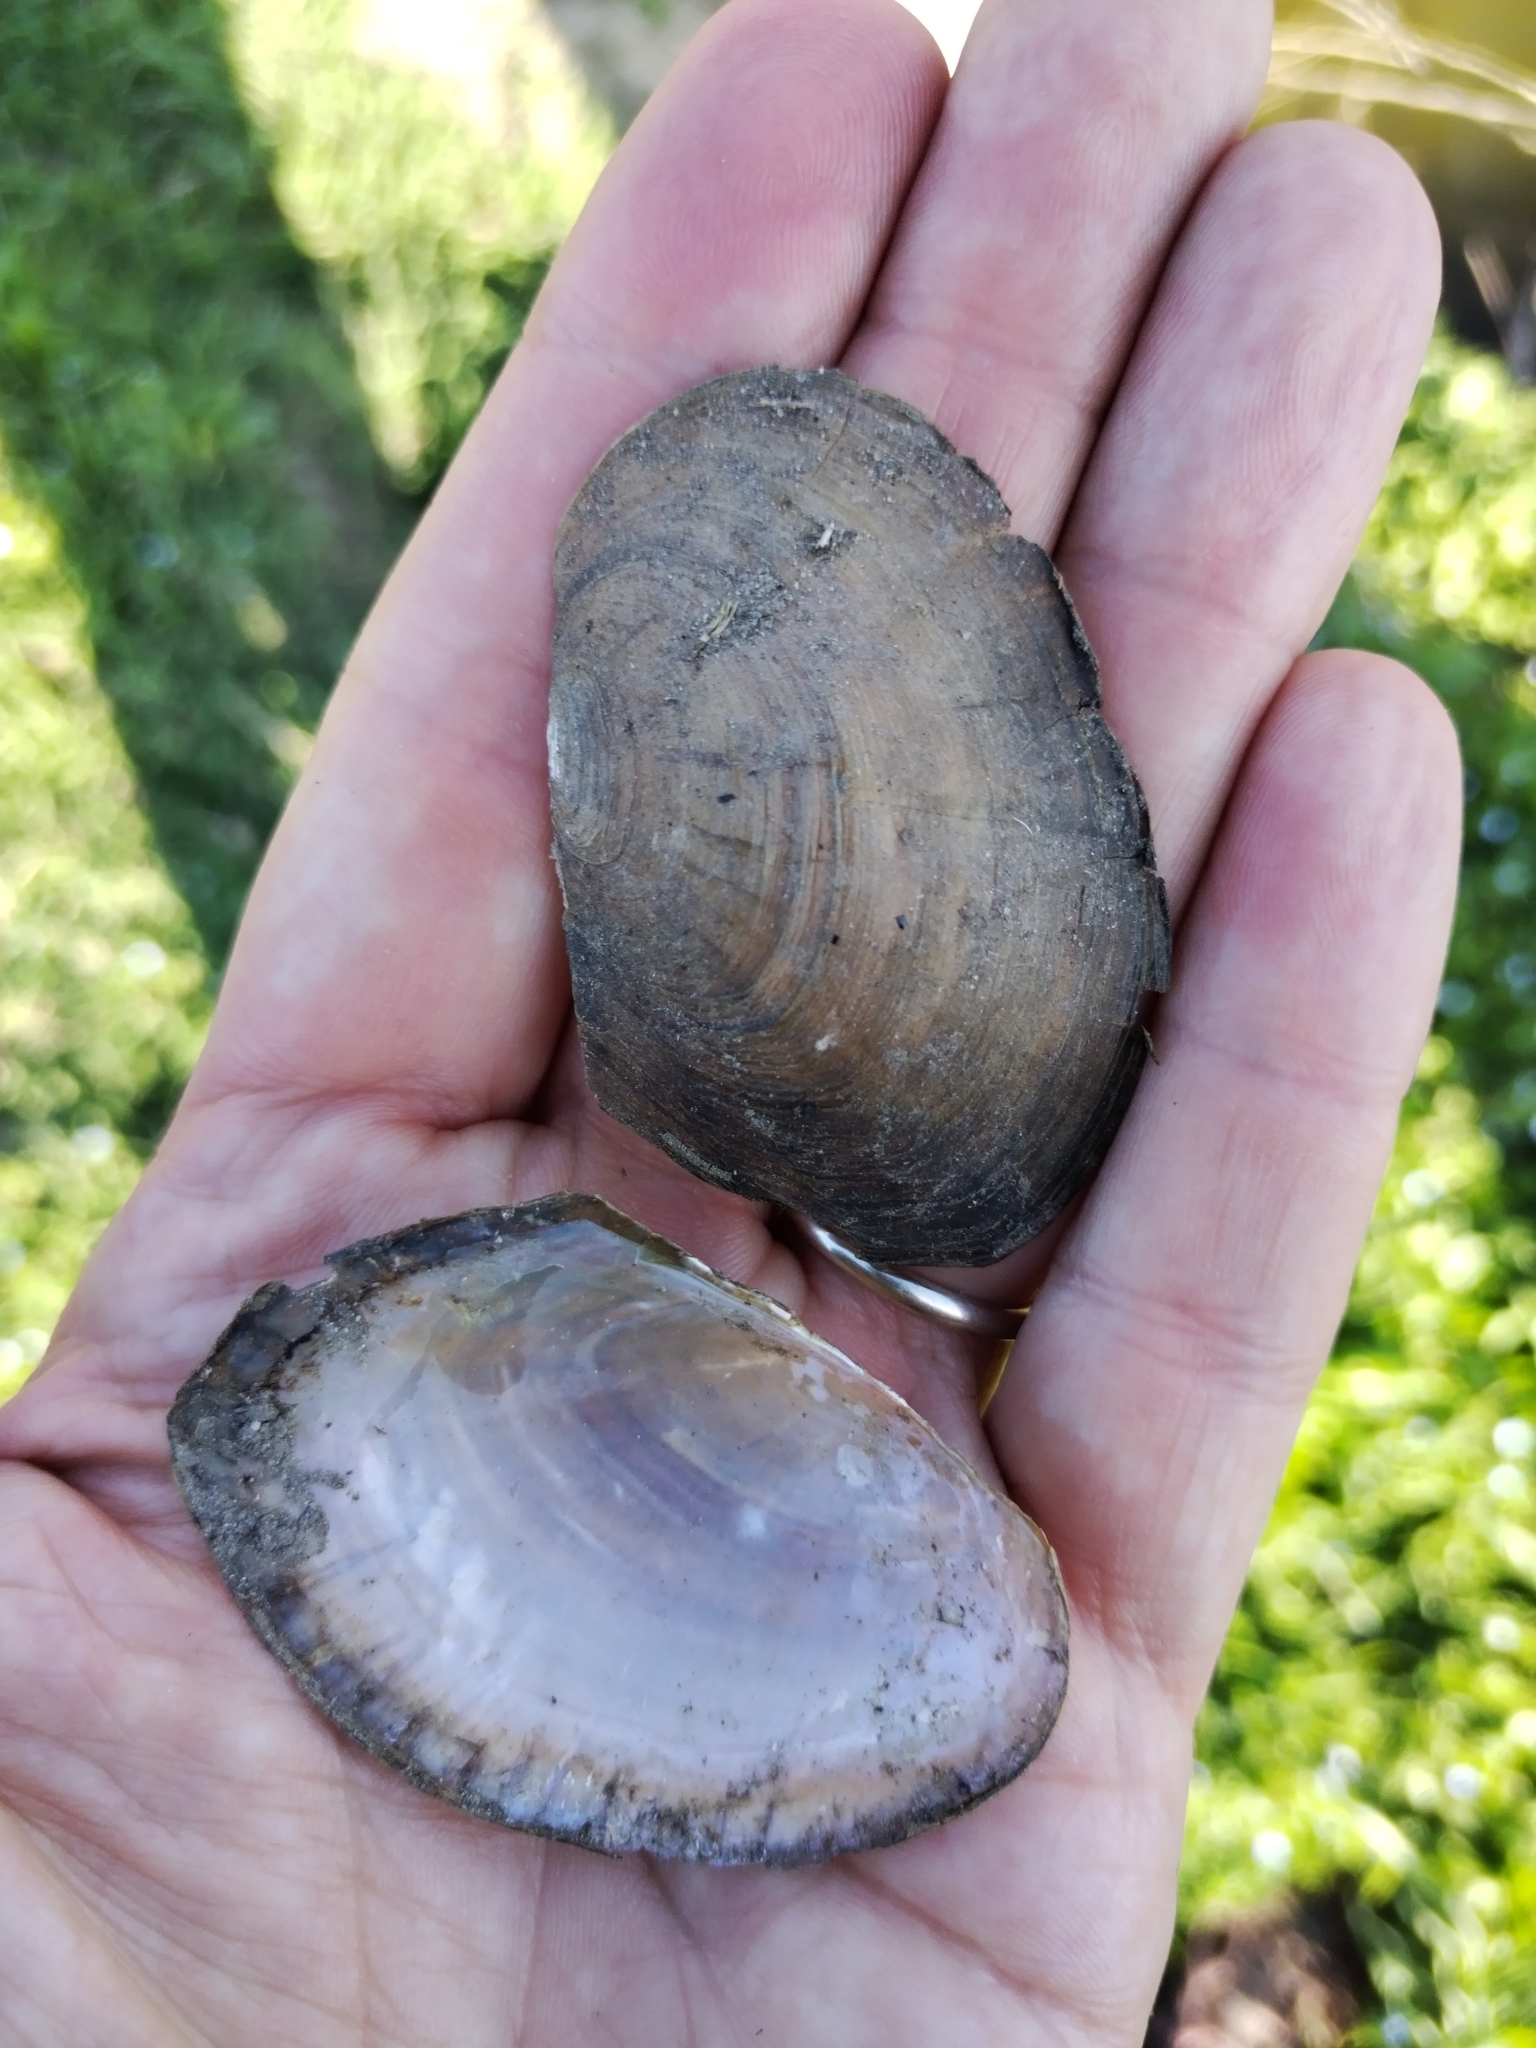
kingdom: Animalia
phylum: Mollusca
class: Bivalvia
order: Unionida
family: Unionidae
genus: Sinanodonta
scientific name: Sinanodonta woodiana
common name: Chinese pond mussel
